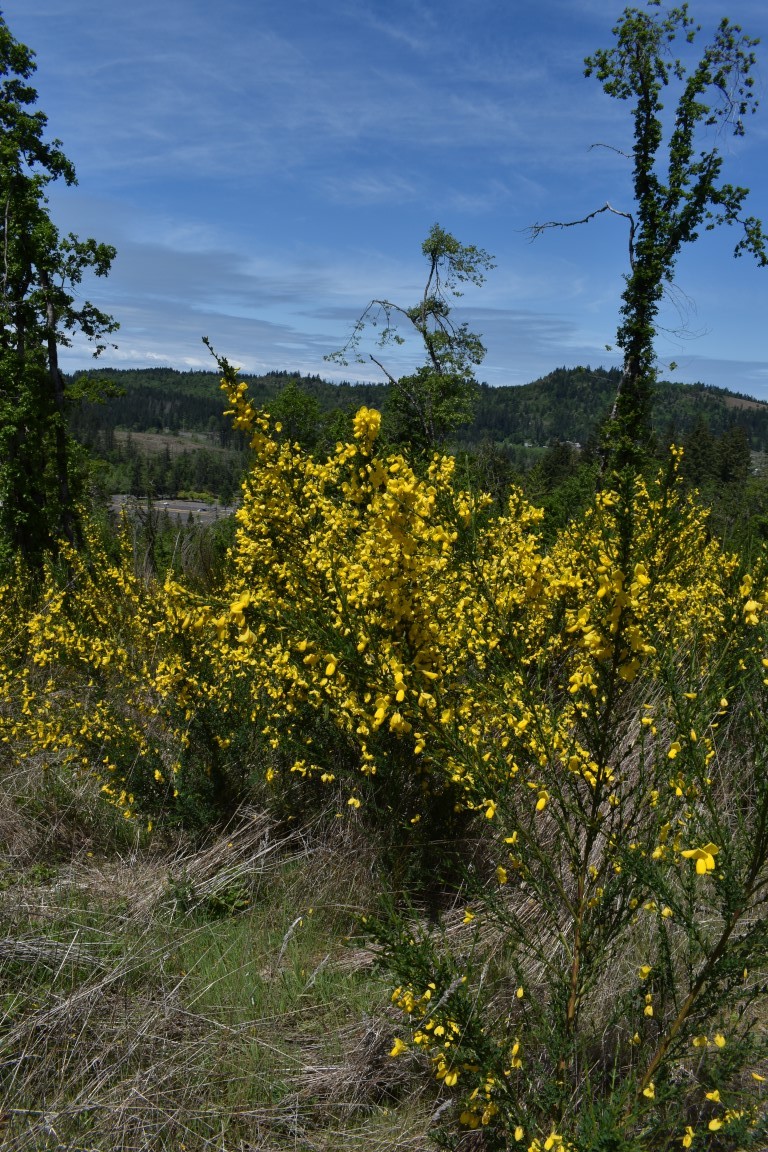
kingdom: Plantae
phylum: Tracheophyta
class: Magnoliopsida
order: Fabales
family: Fabaceae
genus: Cytisus
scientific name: Cytisus scoparius
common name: Scotch broom
